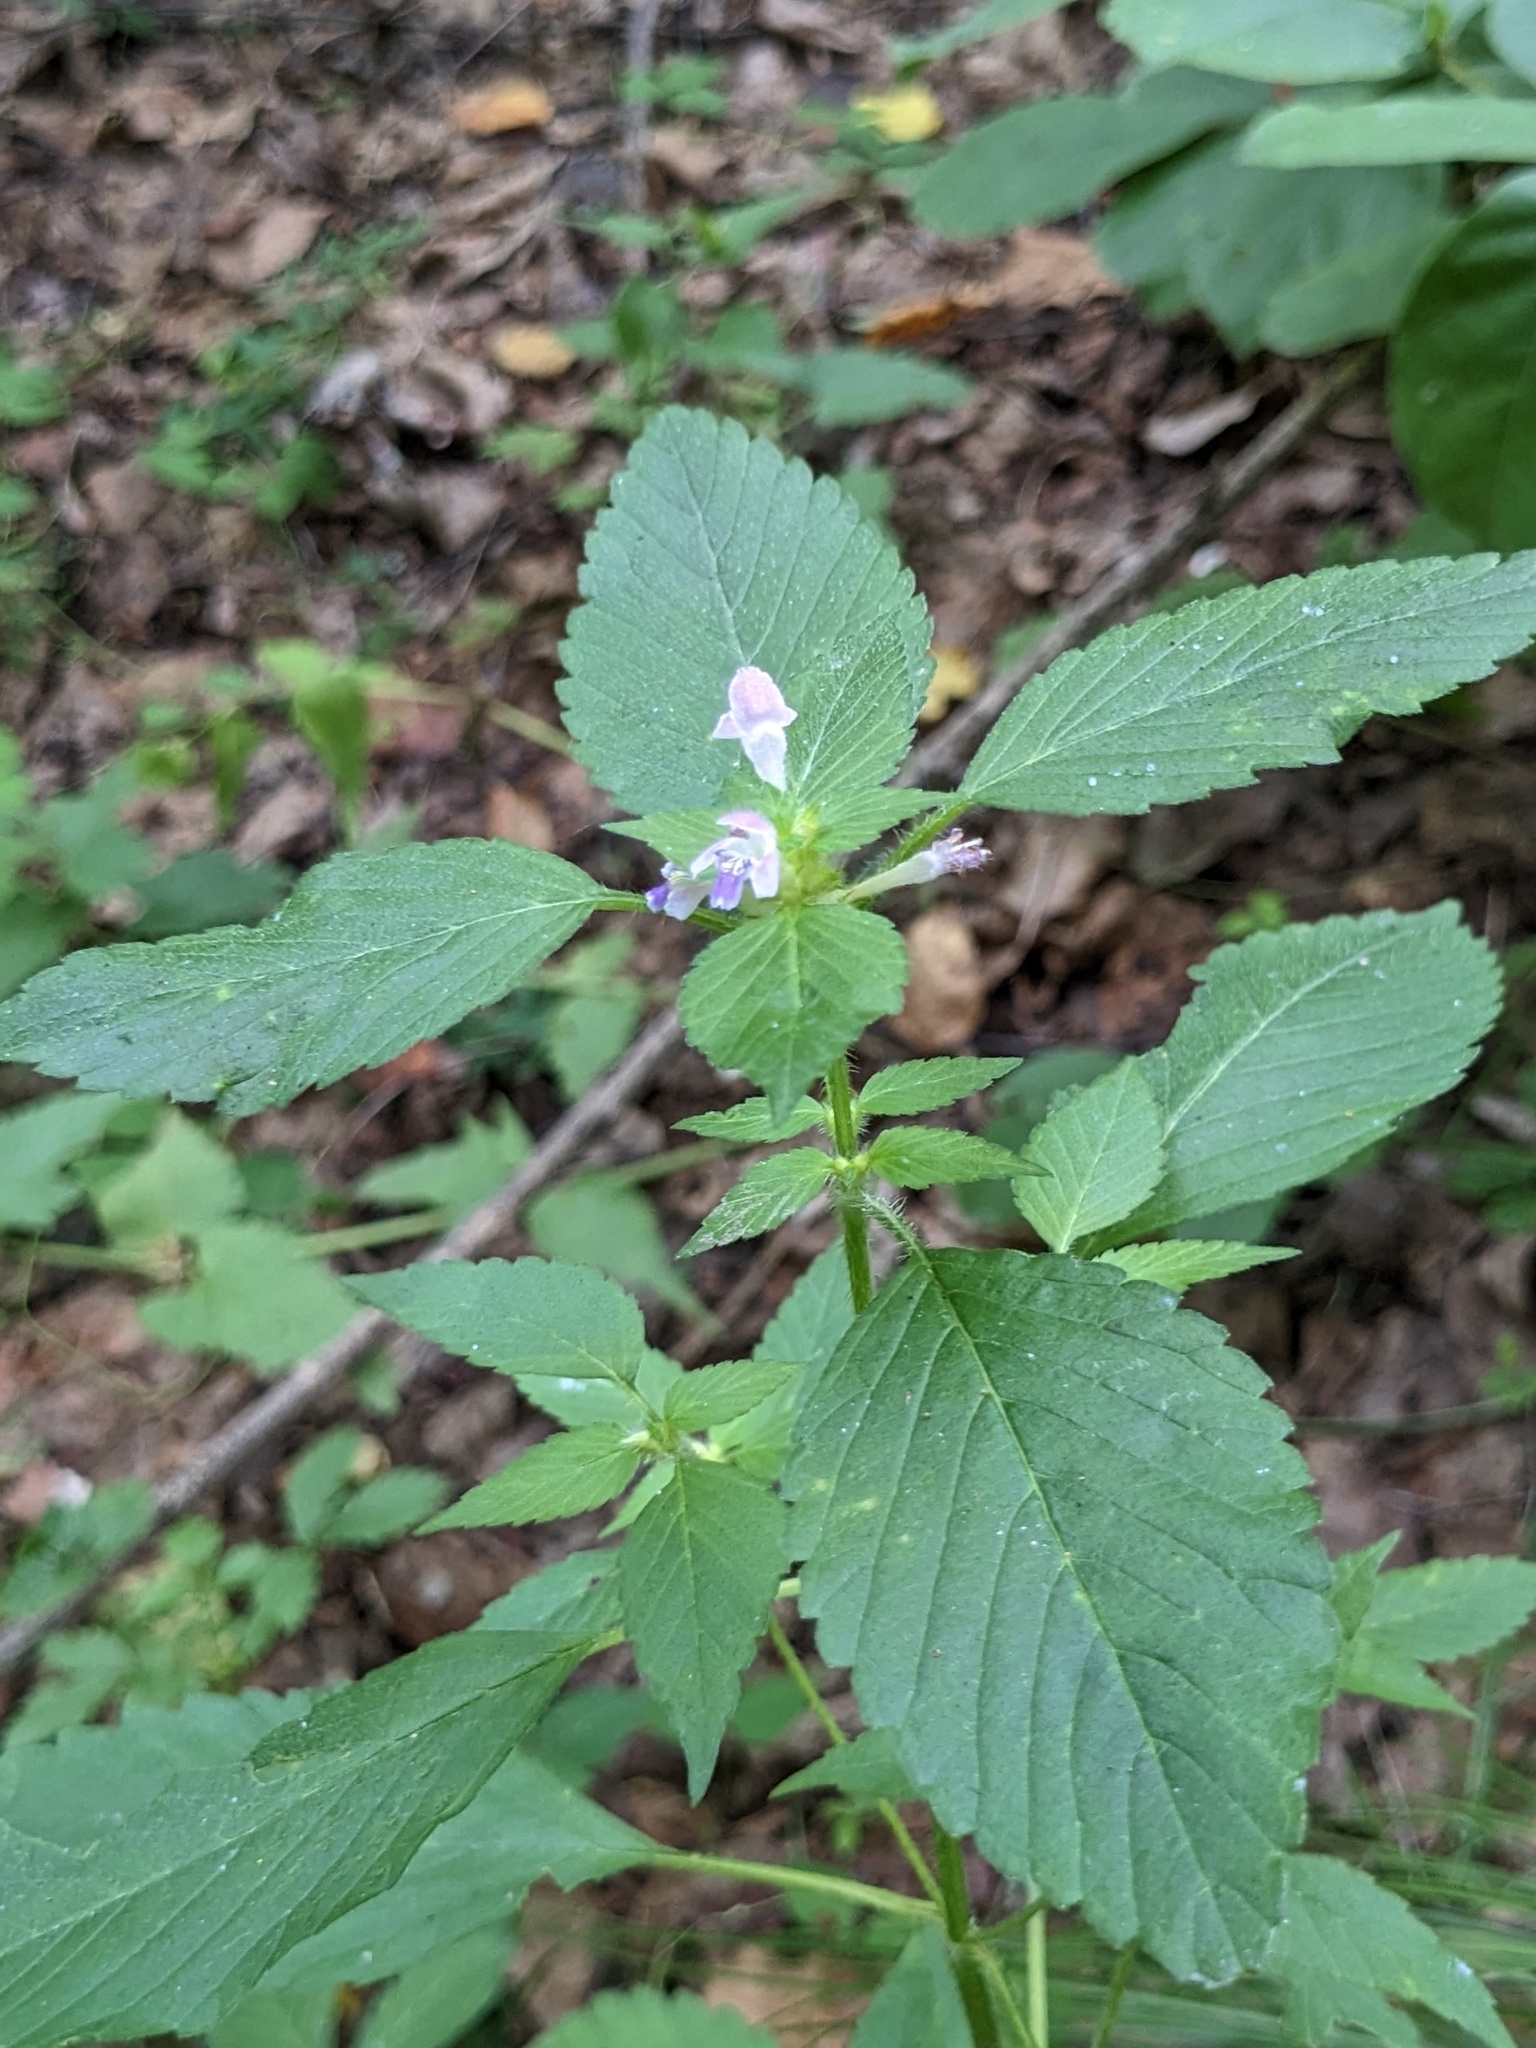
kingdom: Plantae
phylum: Tracheophyta
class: Magnoliopsida
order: Lamiales
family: Lamiaceae
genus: Galeopsis
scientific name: Galeopsis bifida
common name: Bifid hemp-nettle
